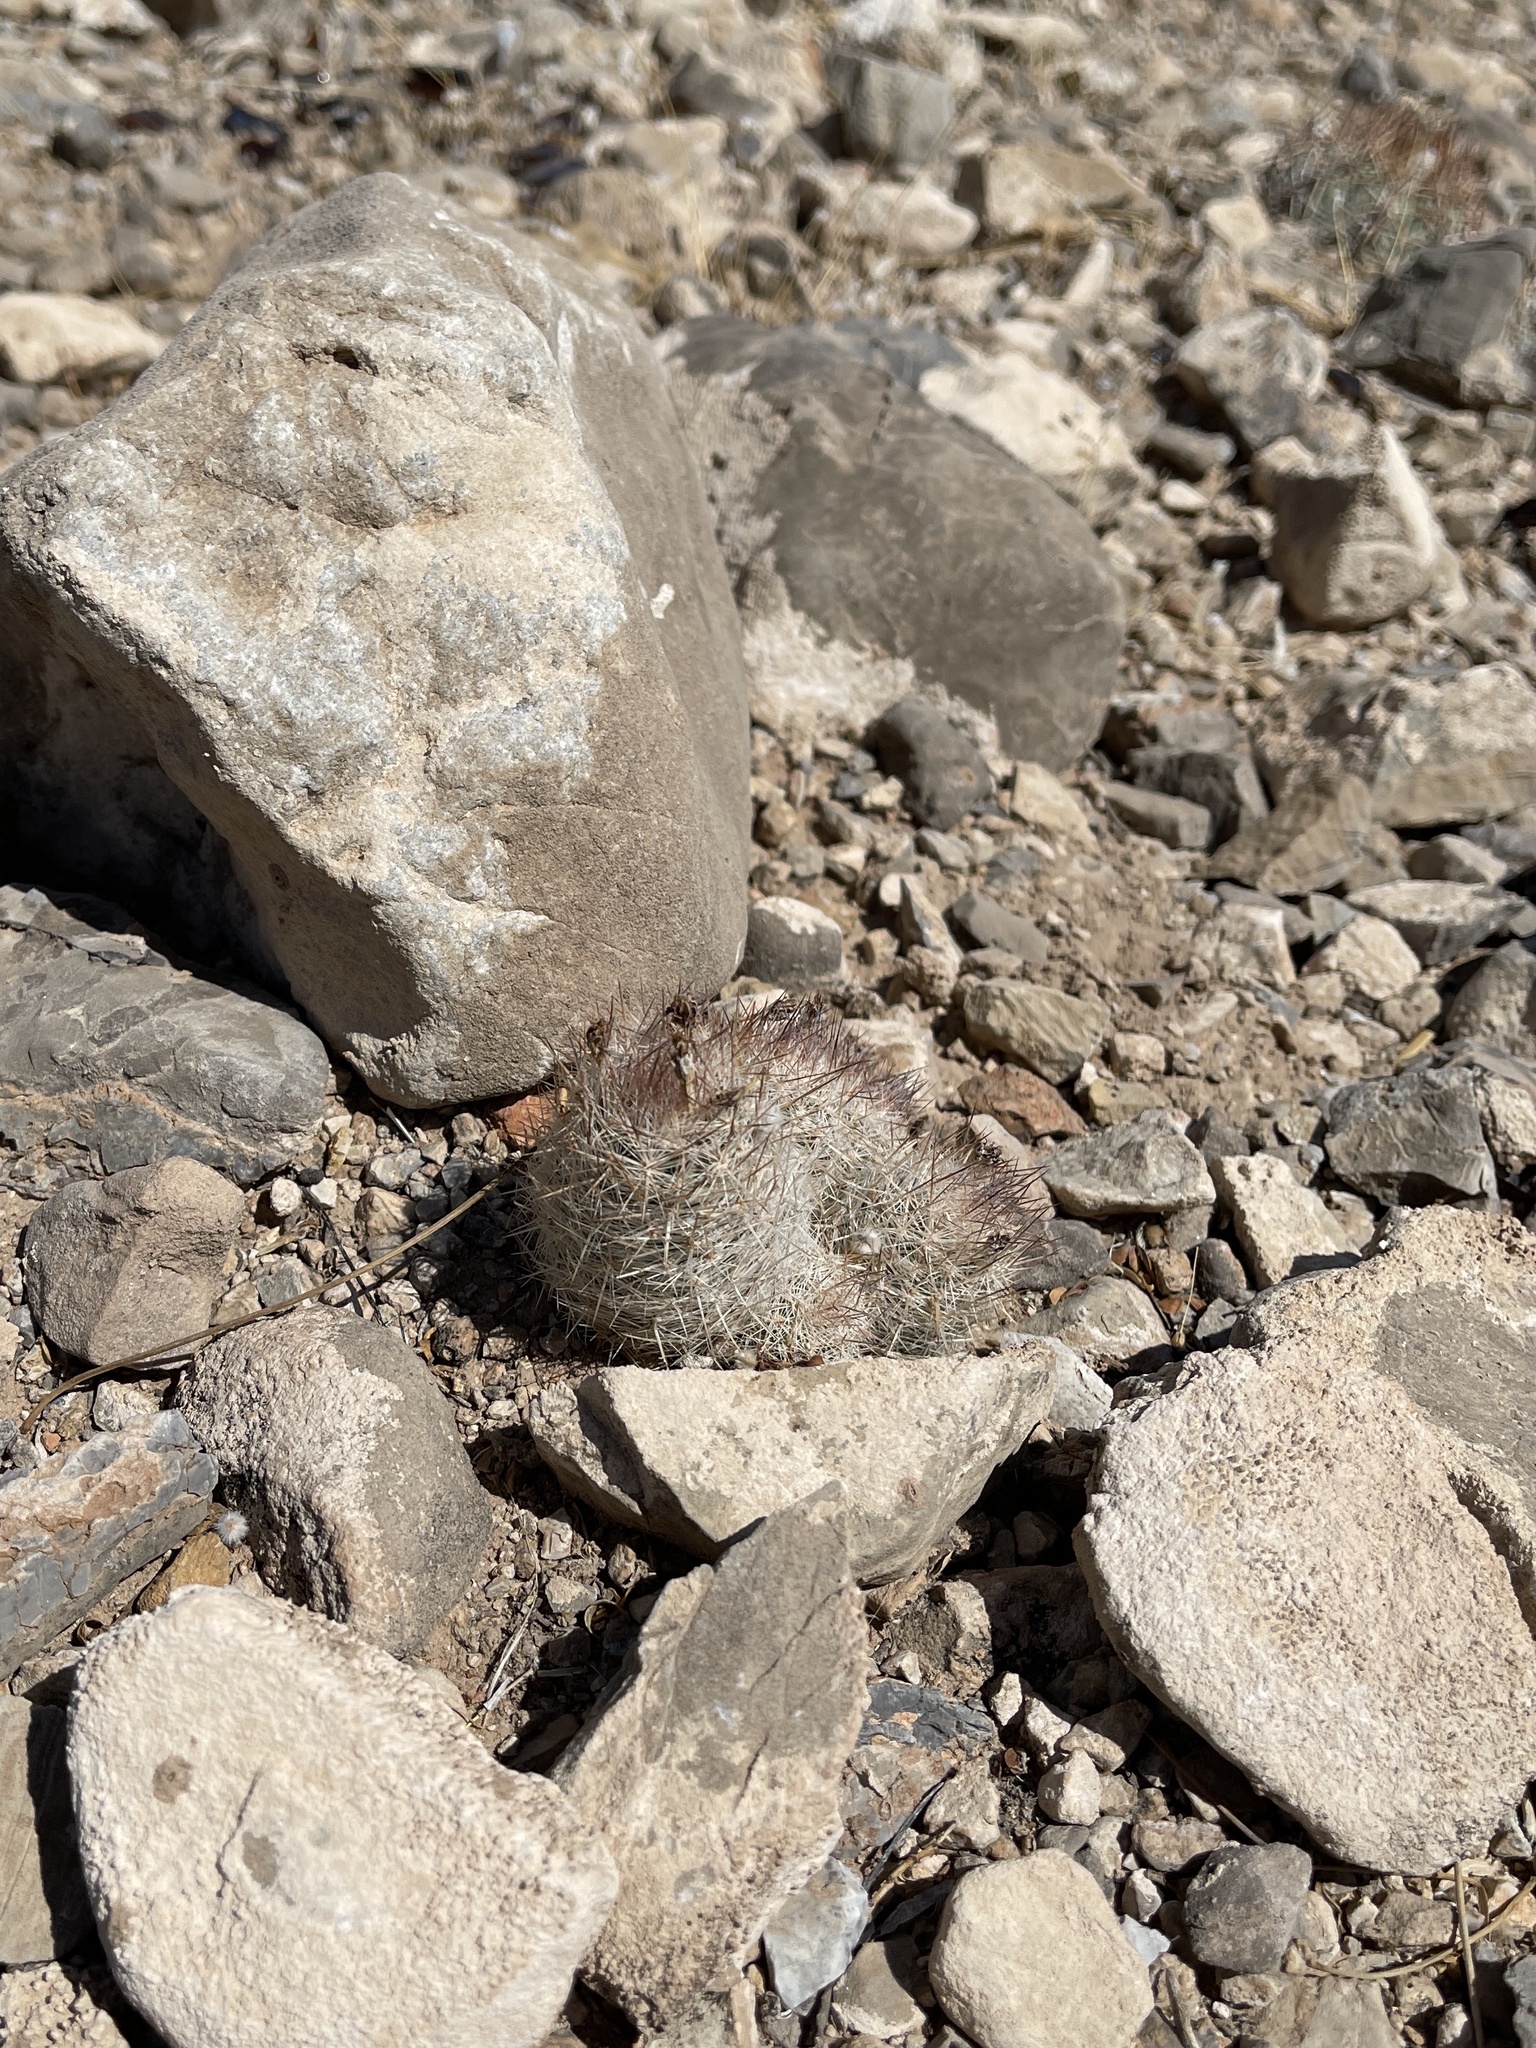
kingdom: Plantae
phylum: Tracheophyta
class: Magnoliopsida
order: Caryophyllales
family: Cactaceae
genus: Pelecyphora
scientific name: Pelecyphora tuberculosa
